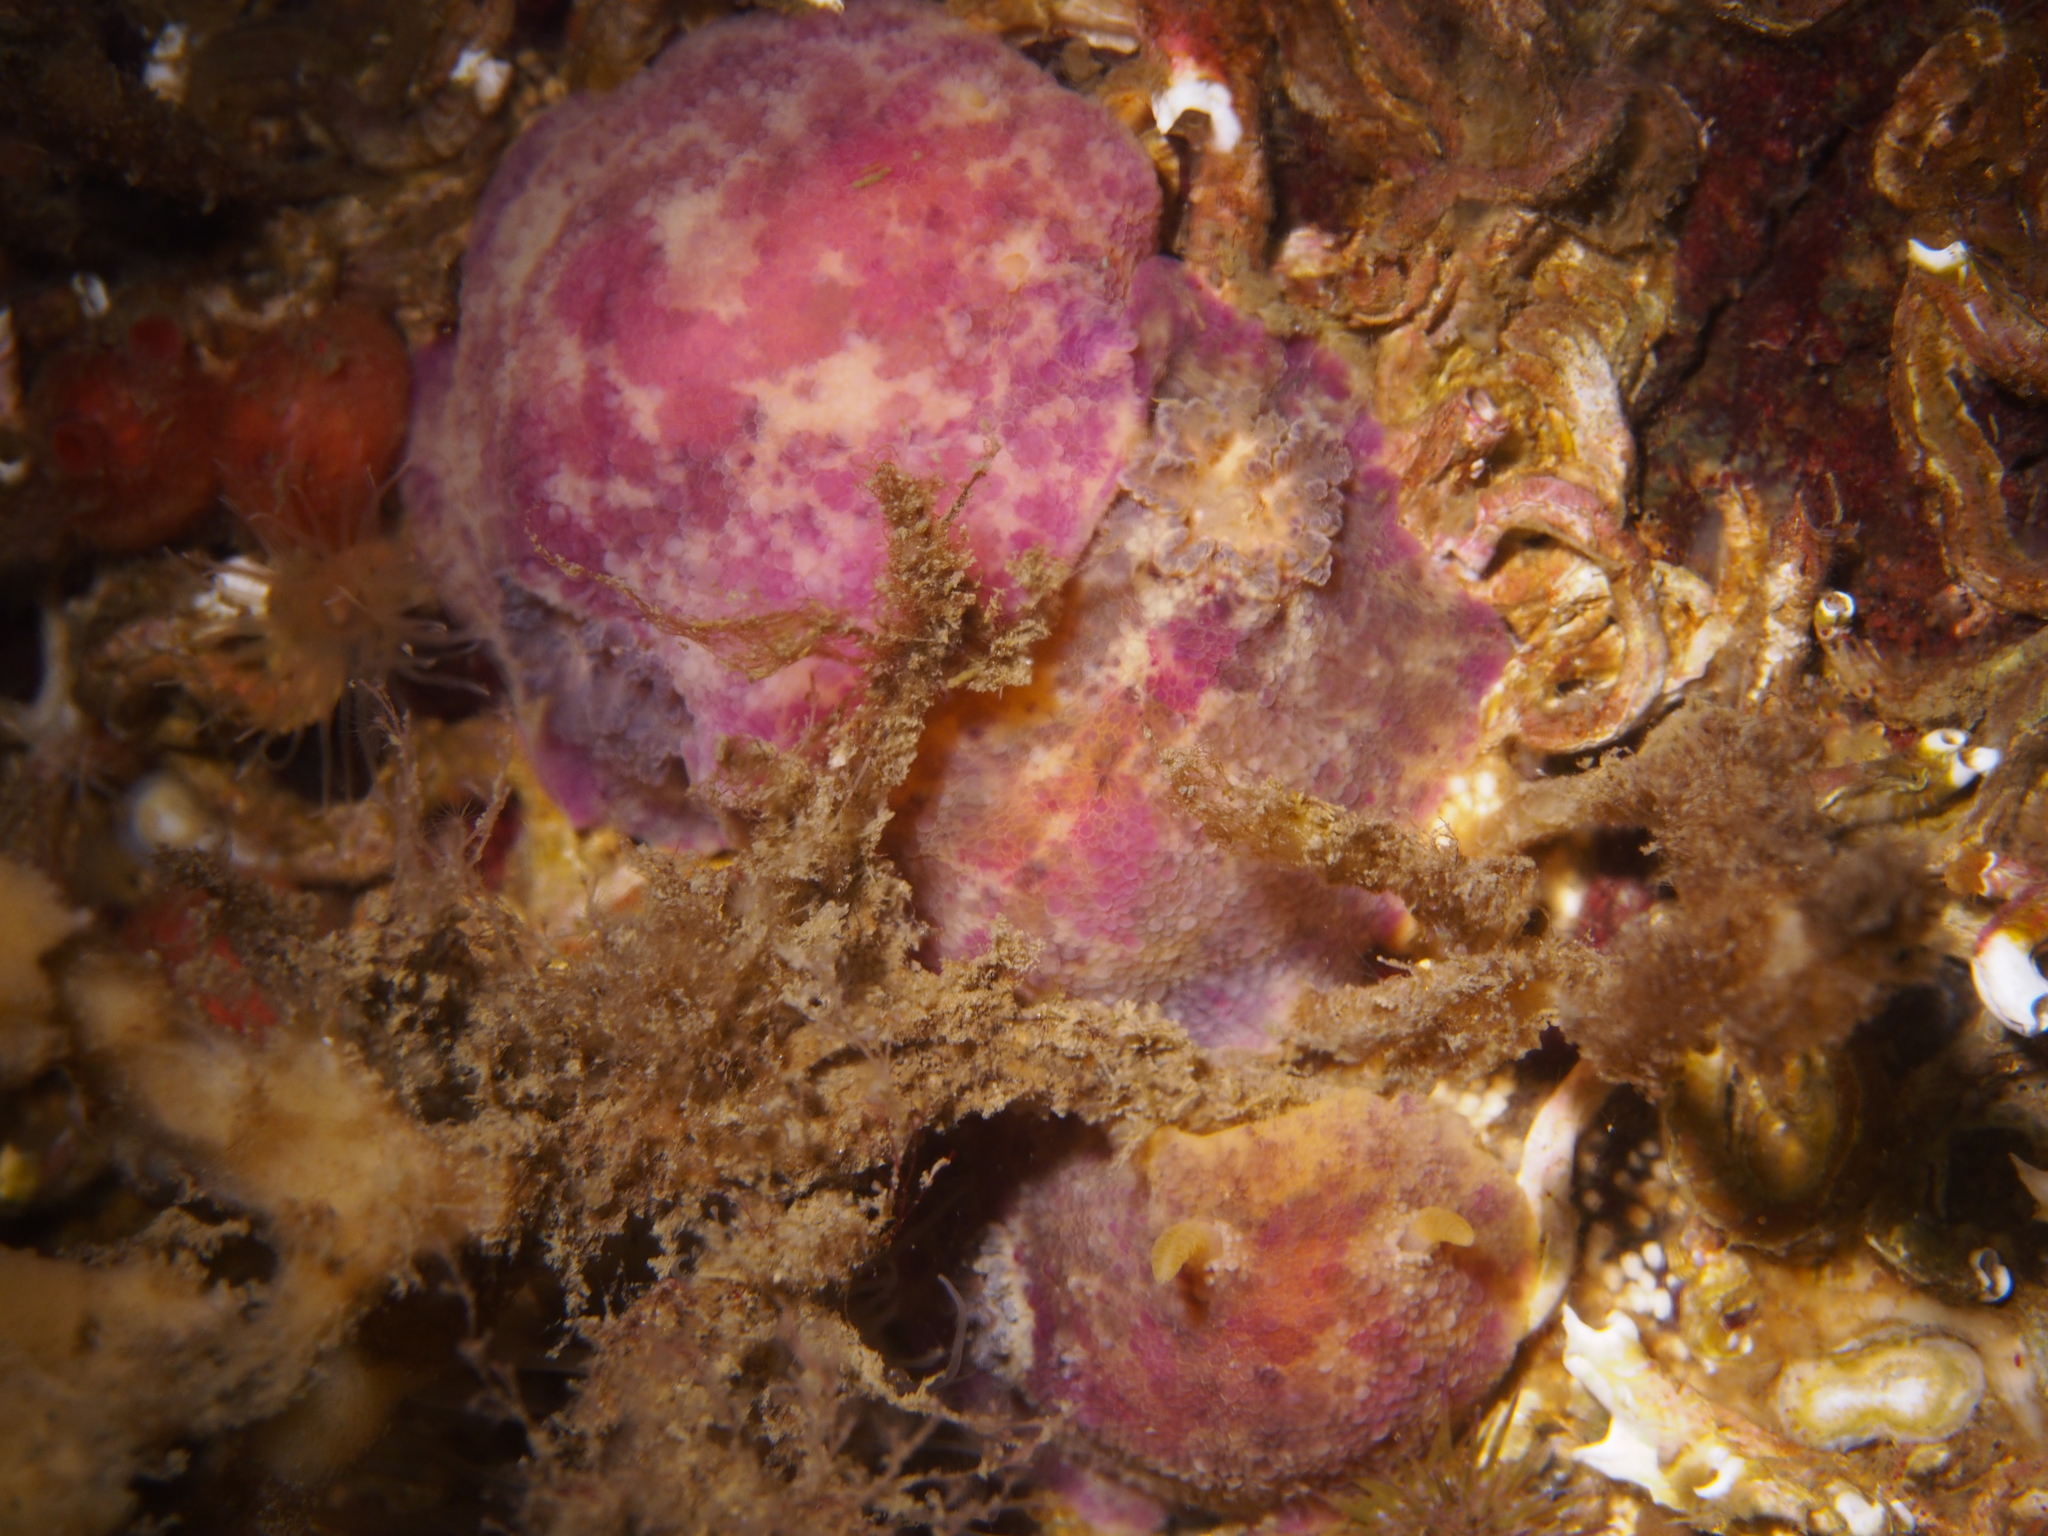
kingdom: Animalia
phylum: Mollusca
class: Gastropoda
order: Nudibranchia
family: Dorididae
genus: Doris
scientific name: Doris pseudoargus
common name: Sea lemon
